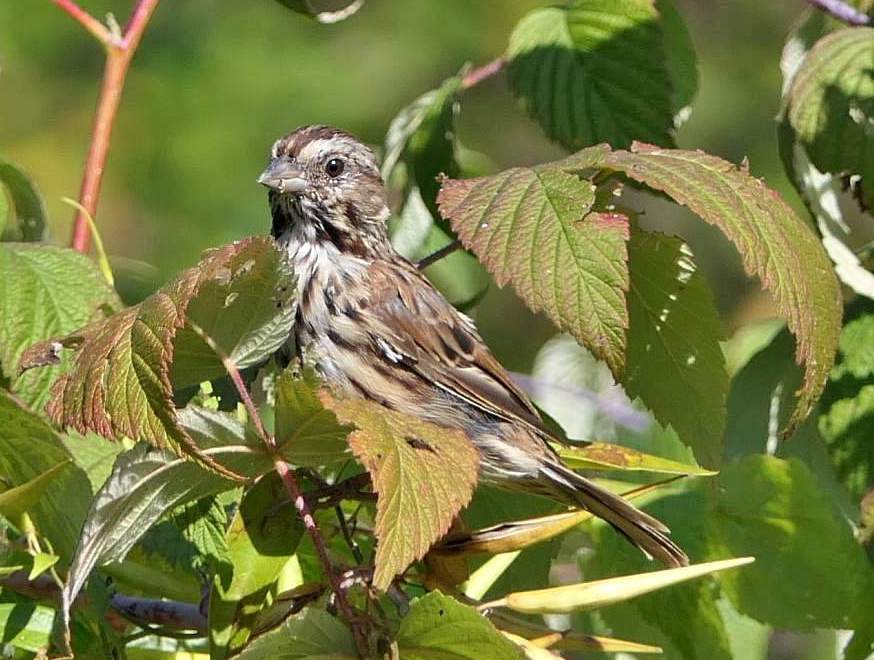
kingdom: Animalia
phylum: Chordata
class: Aves
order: Passeriformes
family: Passerellidae
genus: Melospiza
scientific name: Melospiza melodia
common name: Song sparrow
